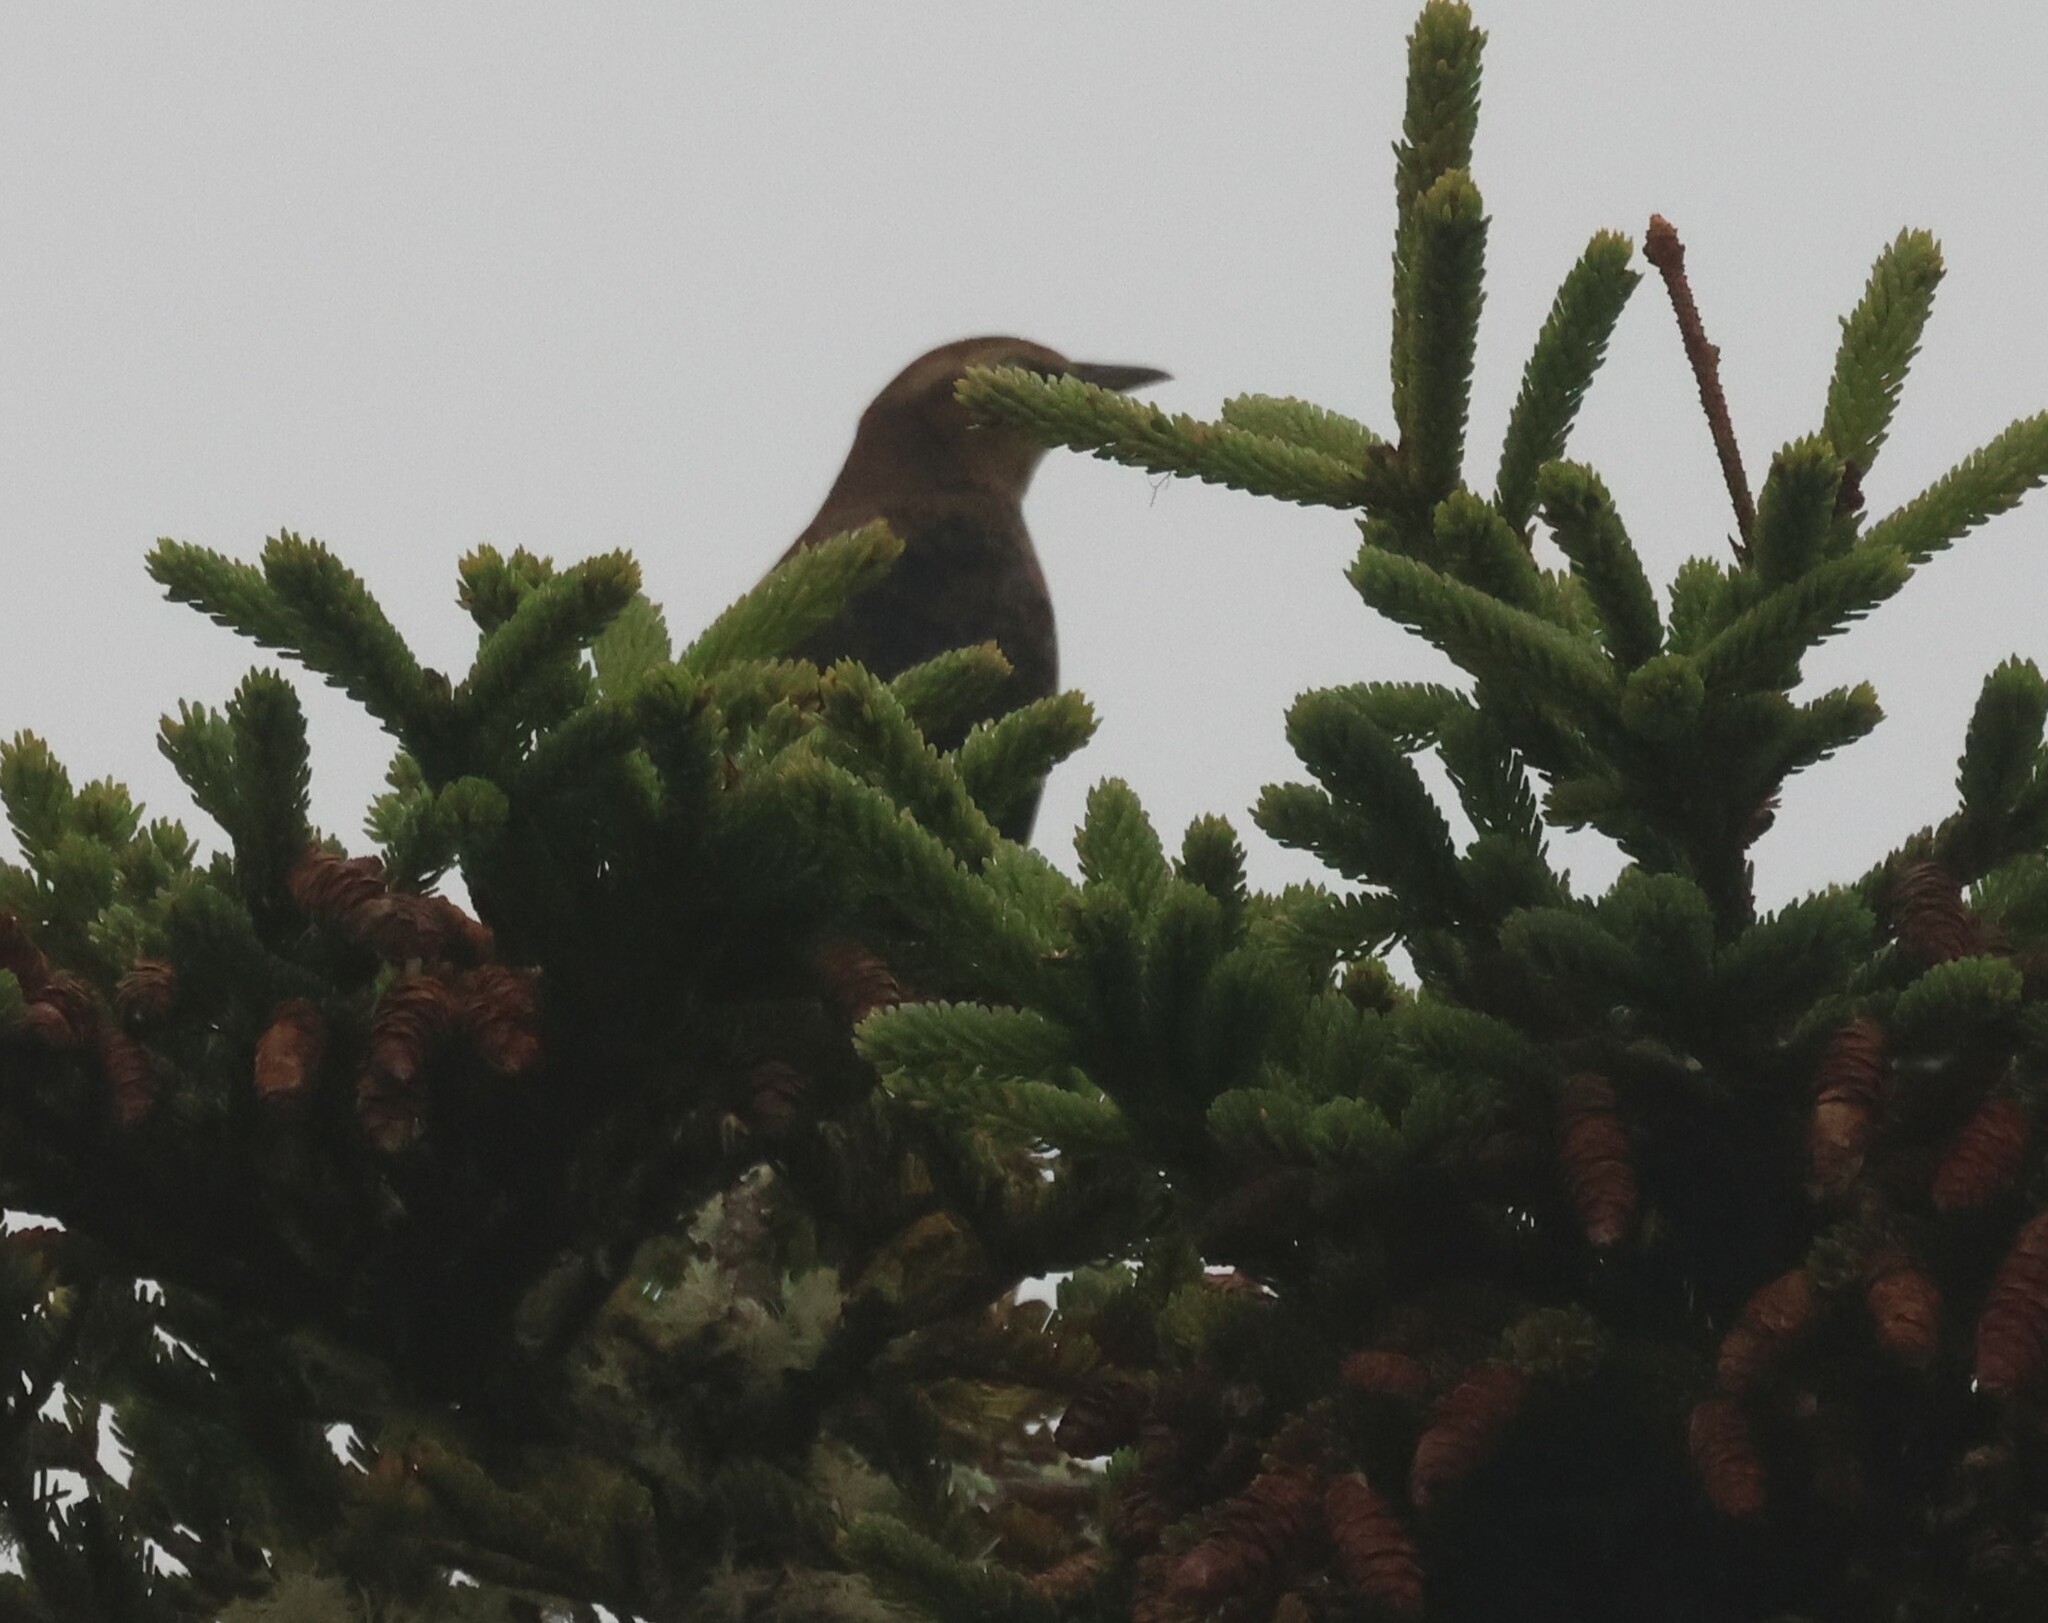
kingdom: Animalia
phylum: Chordata
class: Aves
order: Passeriformes
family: Icteridae
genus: Euphagus
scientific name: Euphagus carolinus
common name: Rusty blackbird
